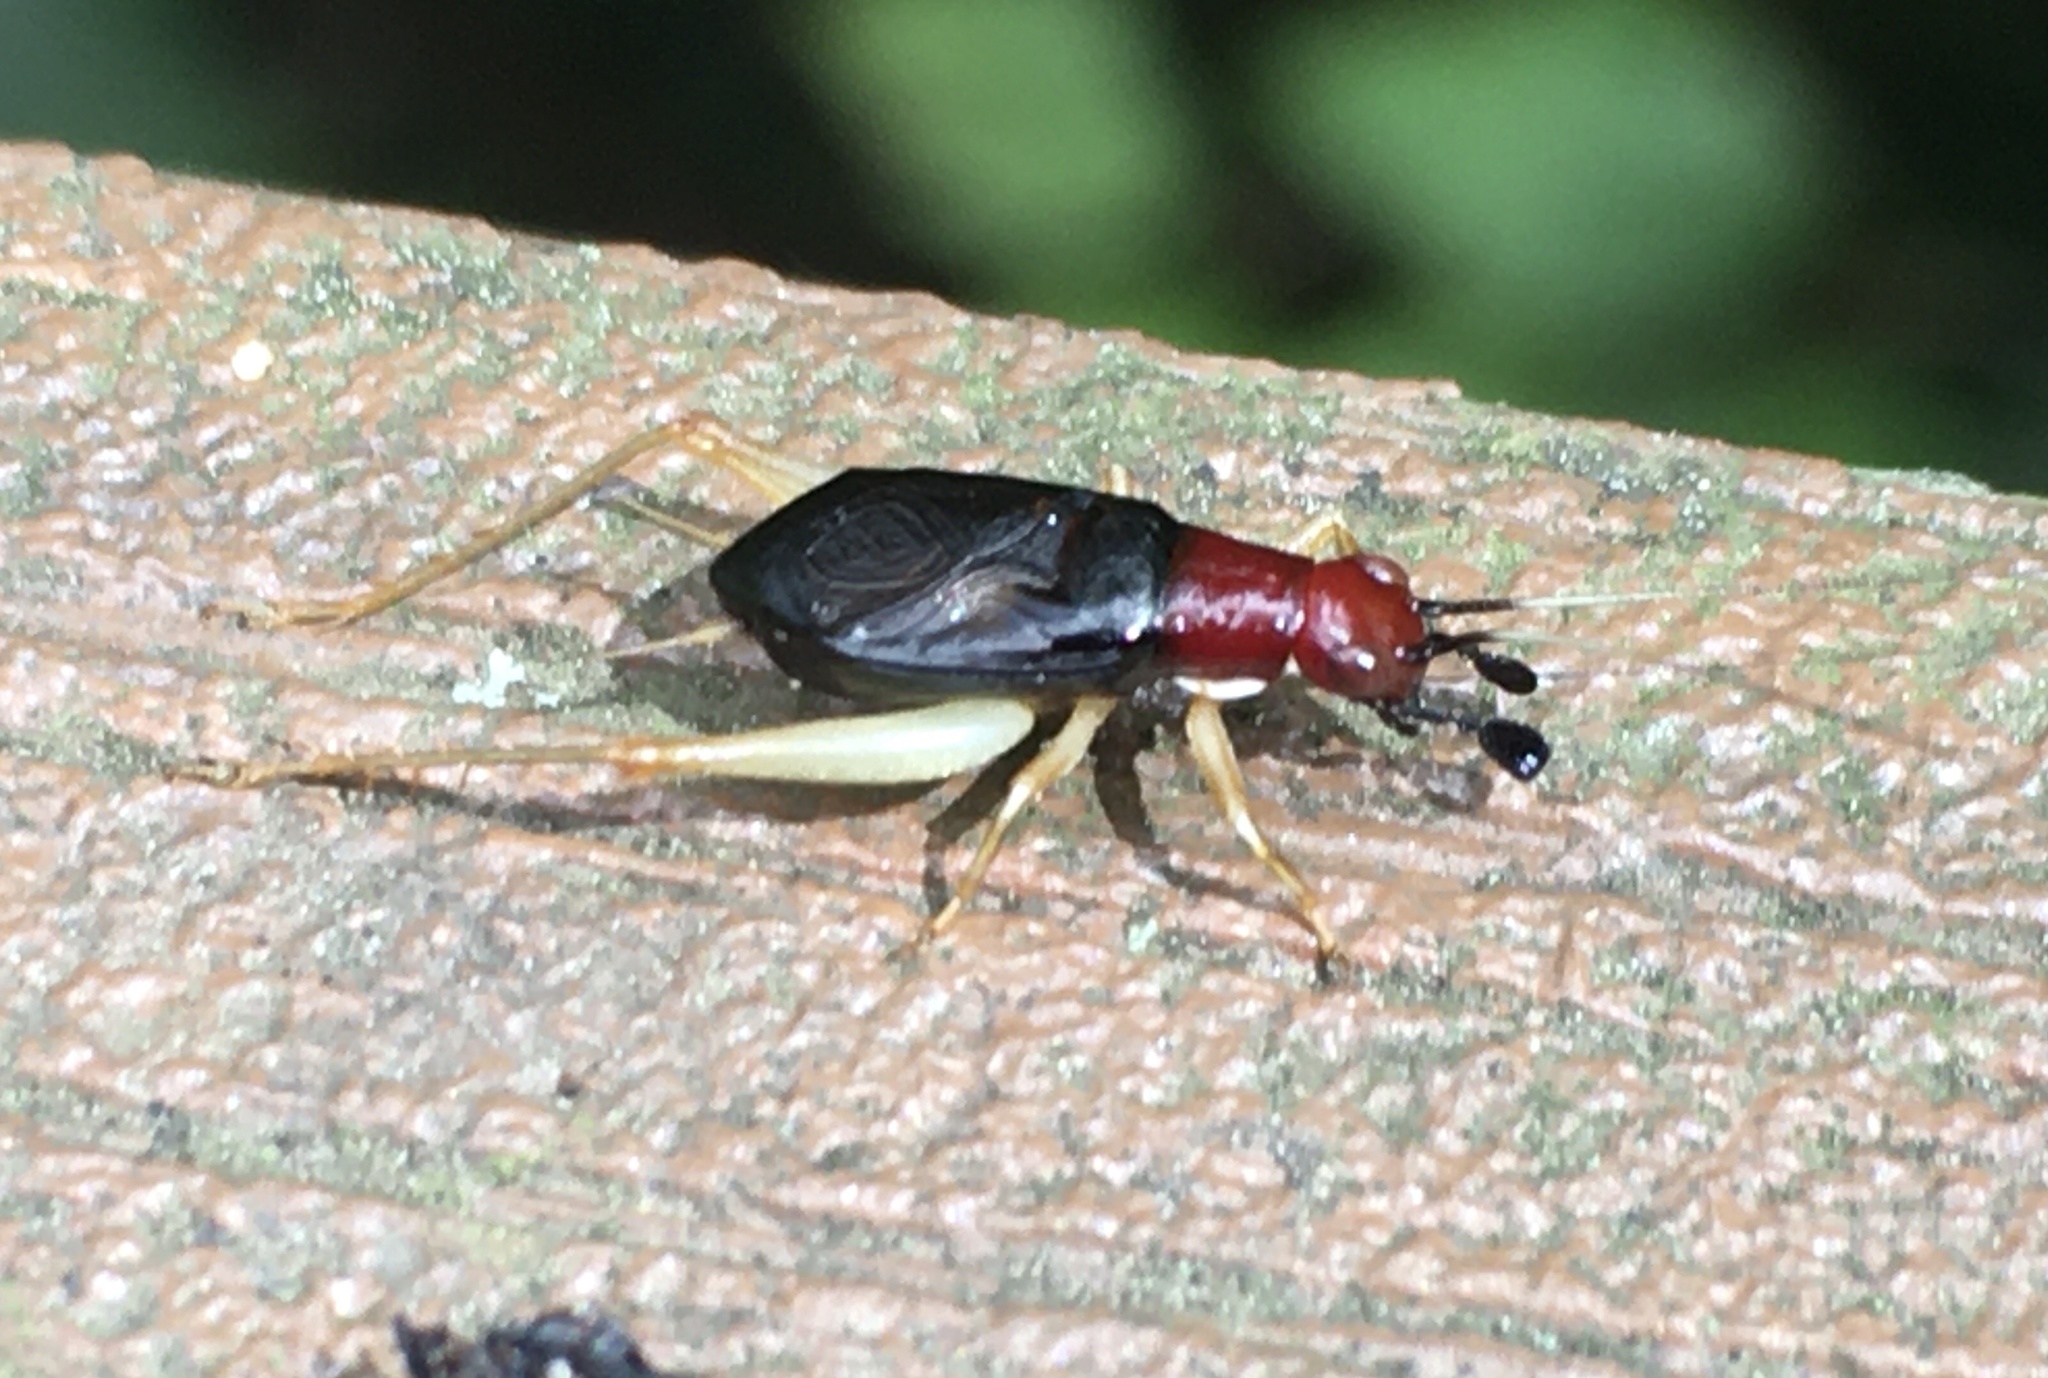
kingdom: Animalia
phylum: Arthropoda
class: Insecta
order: Orthoptera
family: Trigonidiidae
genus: Phyllopalpus
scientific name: Phyllopalpus pulchellus
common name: Handsome trig
